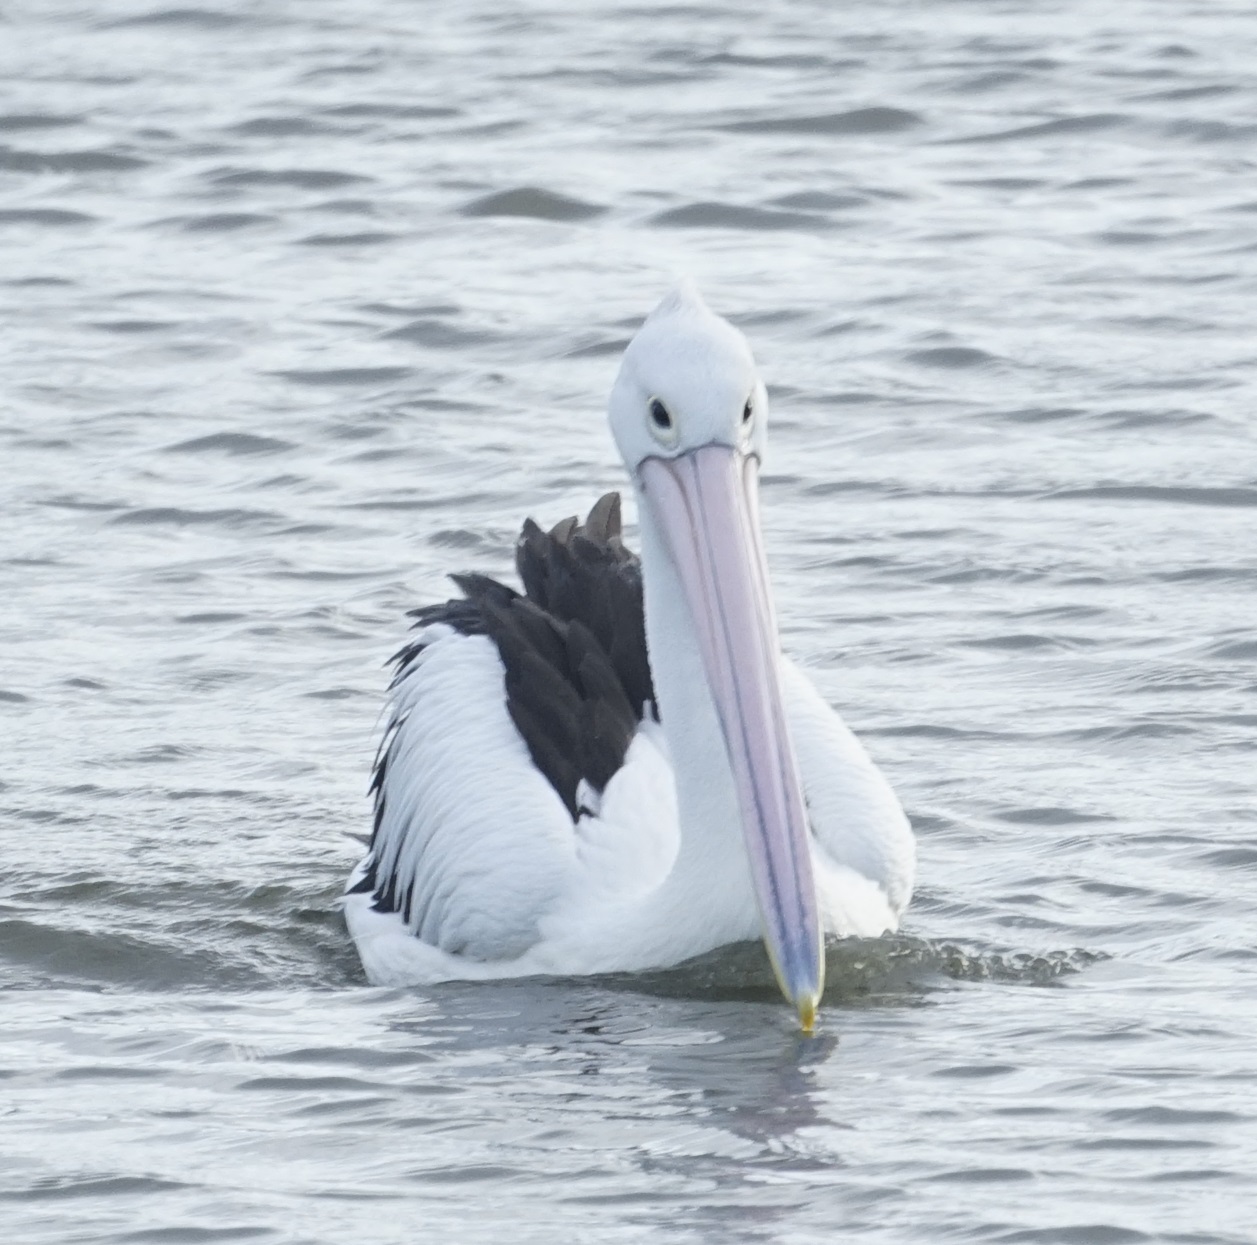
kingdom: Animalia
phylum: Chordata
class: Aves
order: Pelecaniformes
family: Pelecanidae
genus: Pelecanus
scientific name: Pelecanus conspicillatus
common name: Australian pelican
